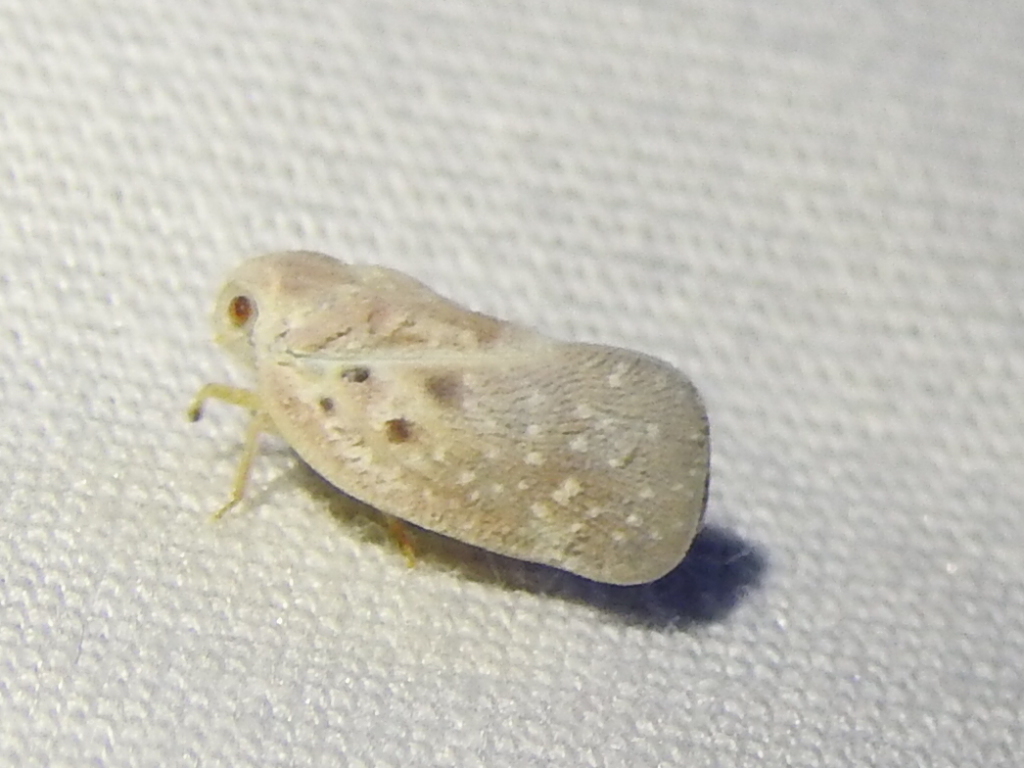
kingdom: Animalia
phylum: Arthropoda
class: Insecta
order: Hemiptera
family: Flatidae
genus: Metcalfa
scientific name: Metcalfa pruinosa
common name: Citrus flatid planthopper
